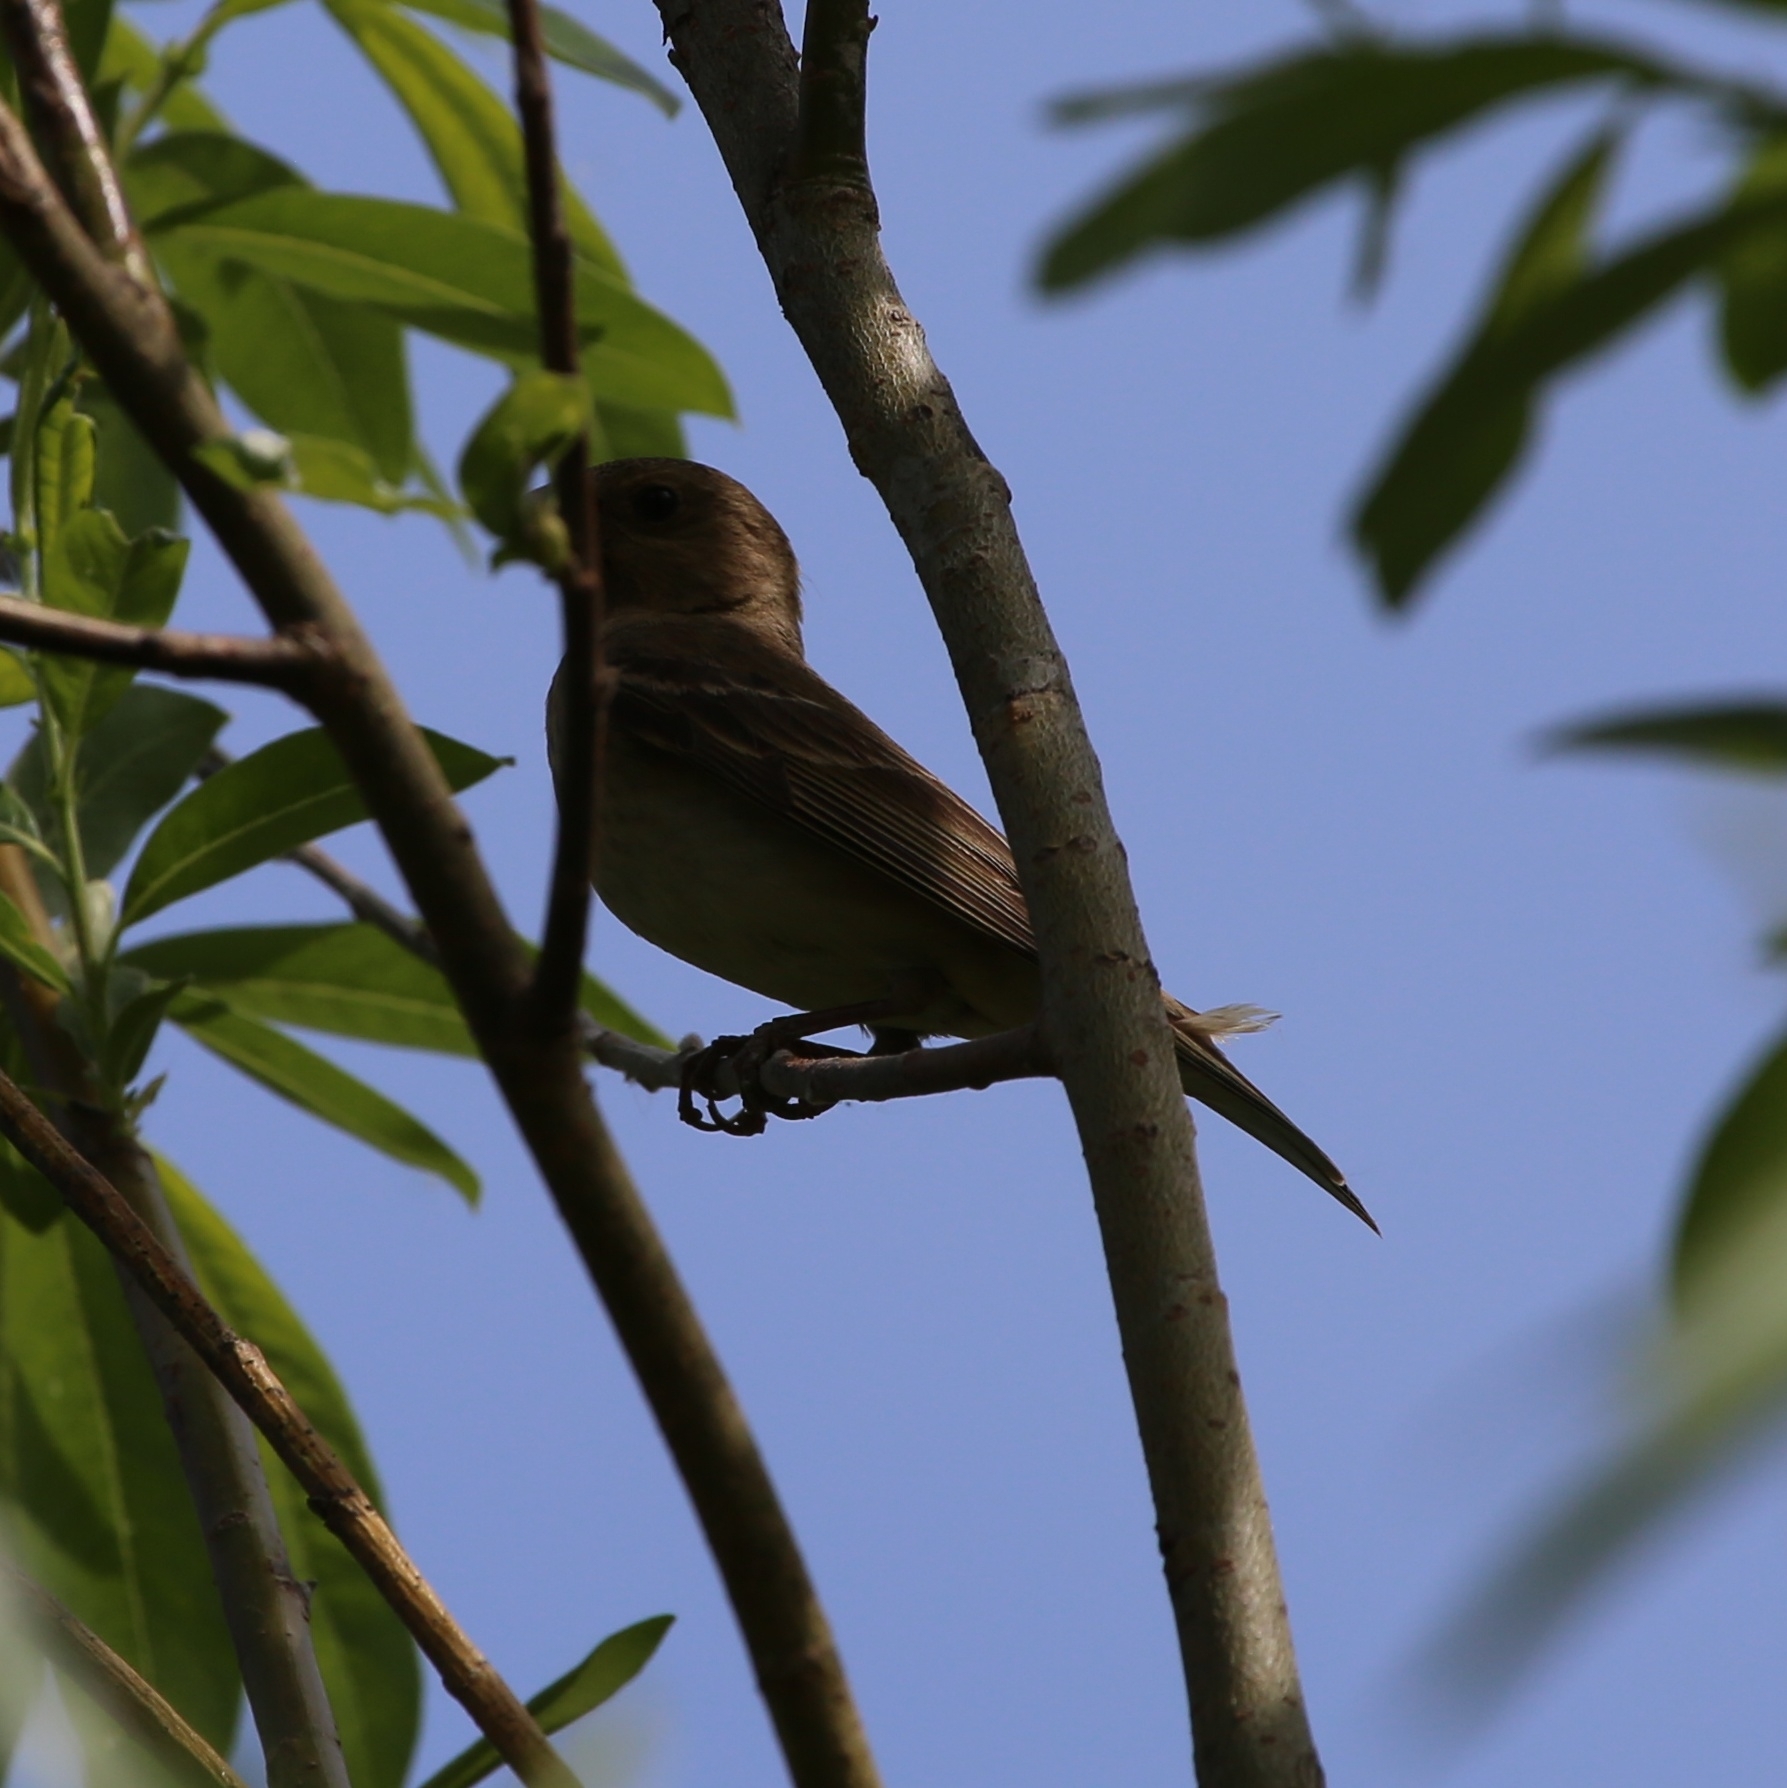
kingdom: Animalia
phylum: Chordata
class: Aves
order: Passeriformes
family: Fringillidae
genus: Carpodacus
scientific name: Carpodacus erythrinus
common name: Common rosefinch
